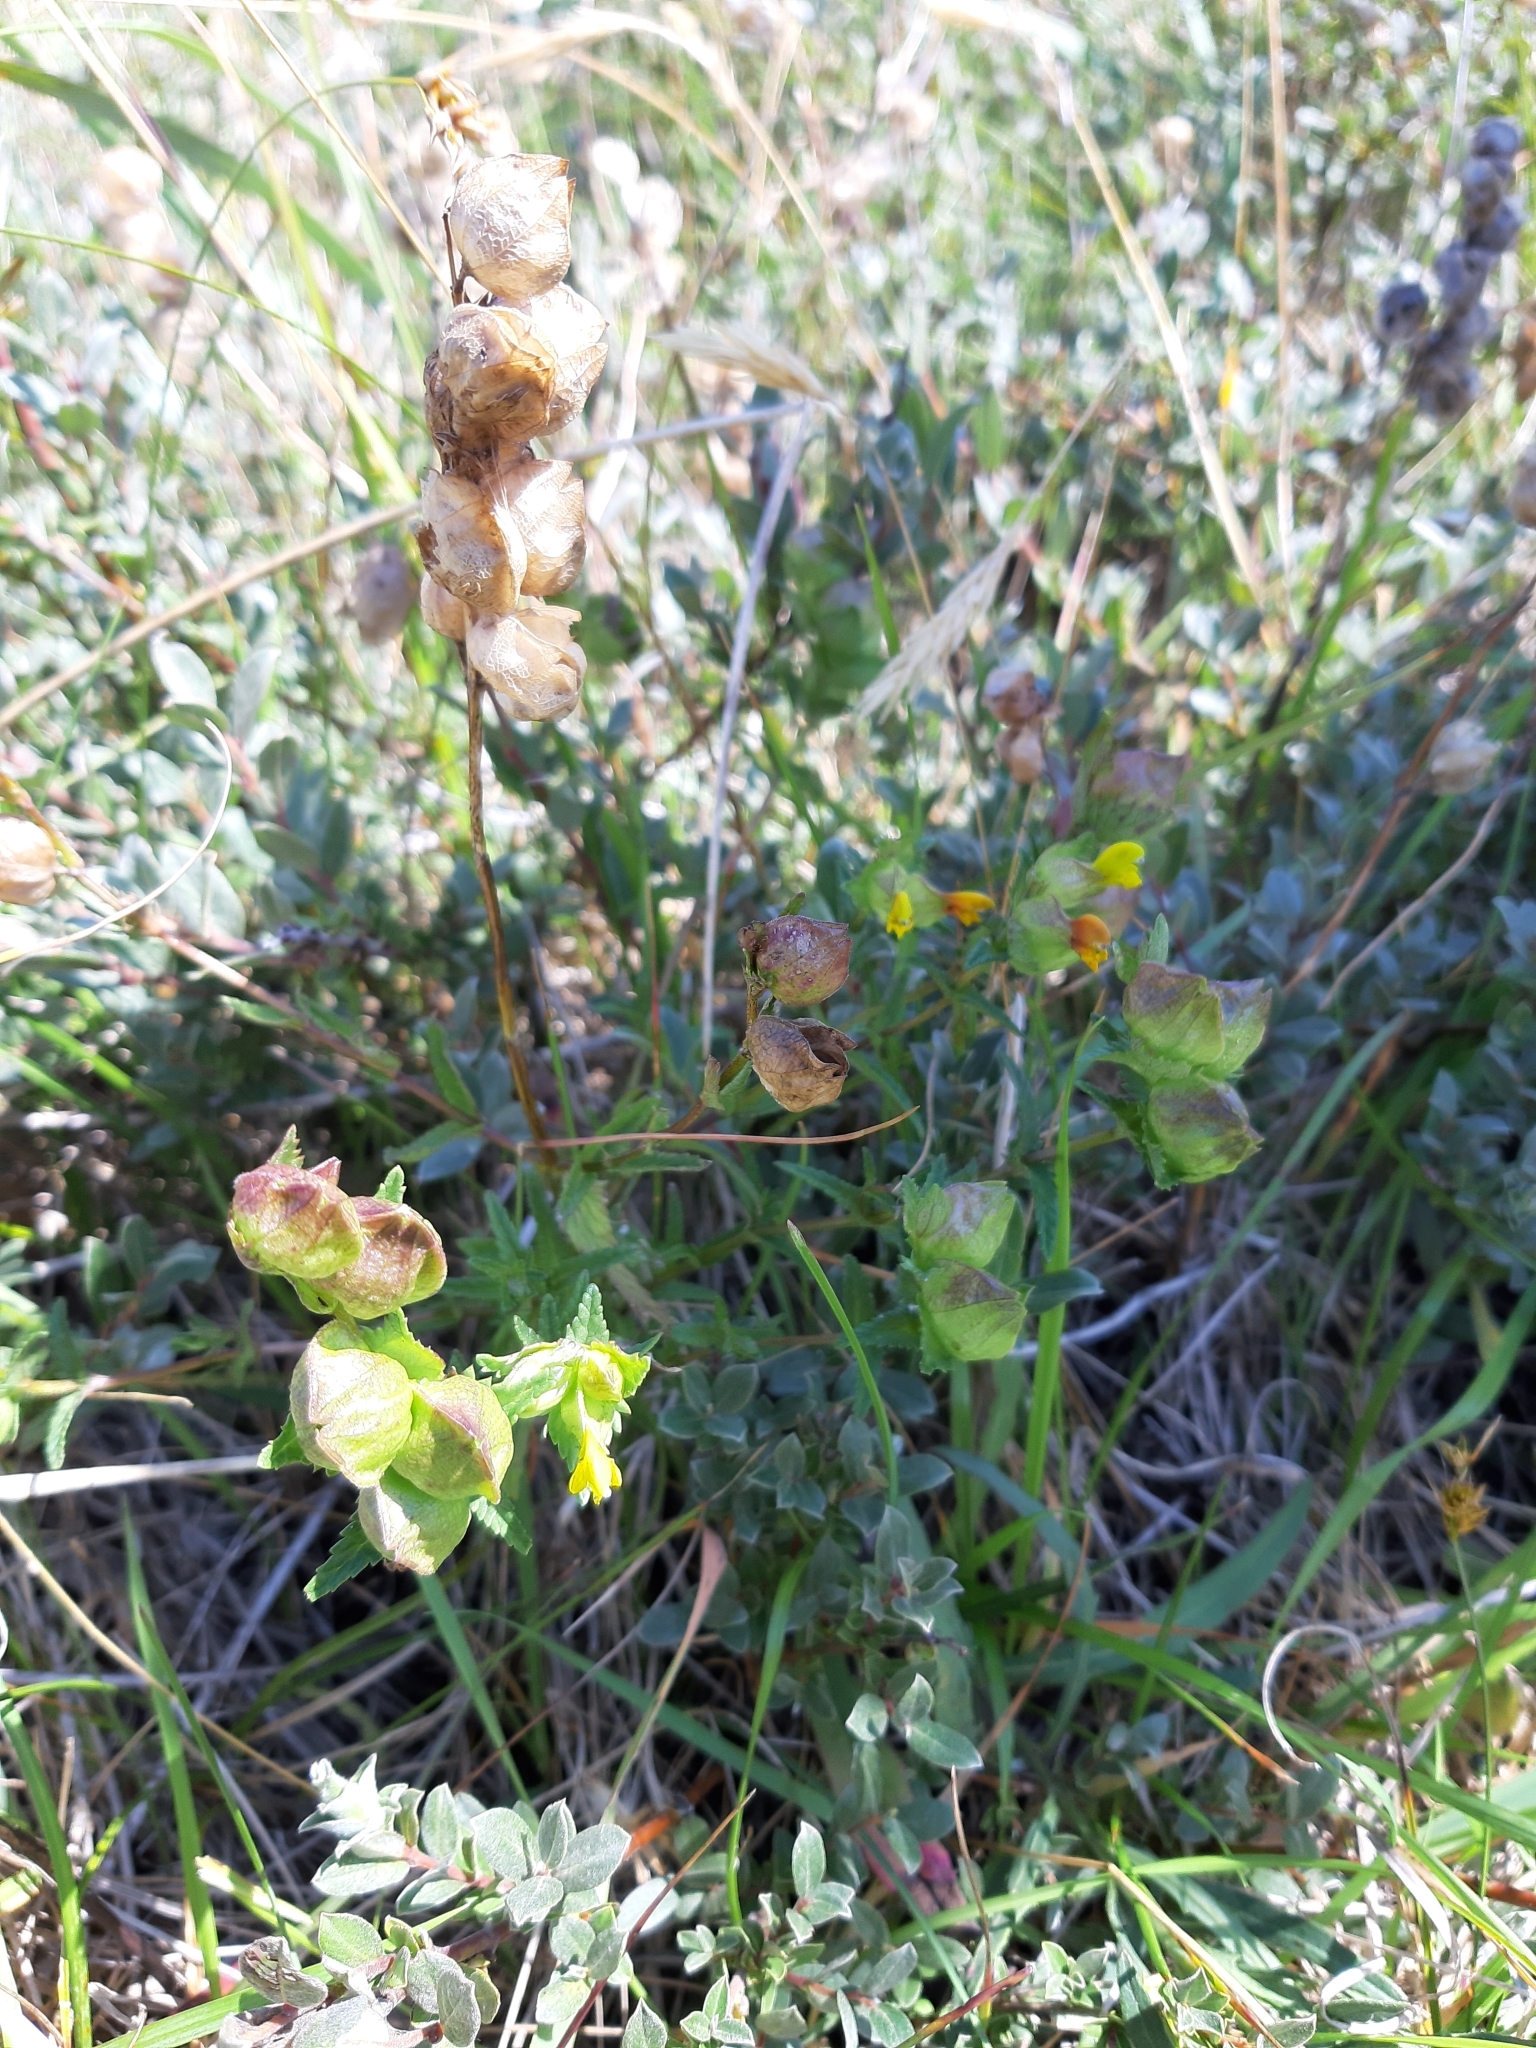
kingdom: Plantae
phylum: Tracheophyta
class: Magnoliopsida
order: Lamiales
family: Orobanchaceae
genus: Rhinanthus
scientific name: Rhinanthus minor
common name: Yellow-rattle
